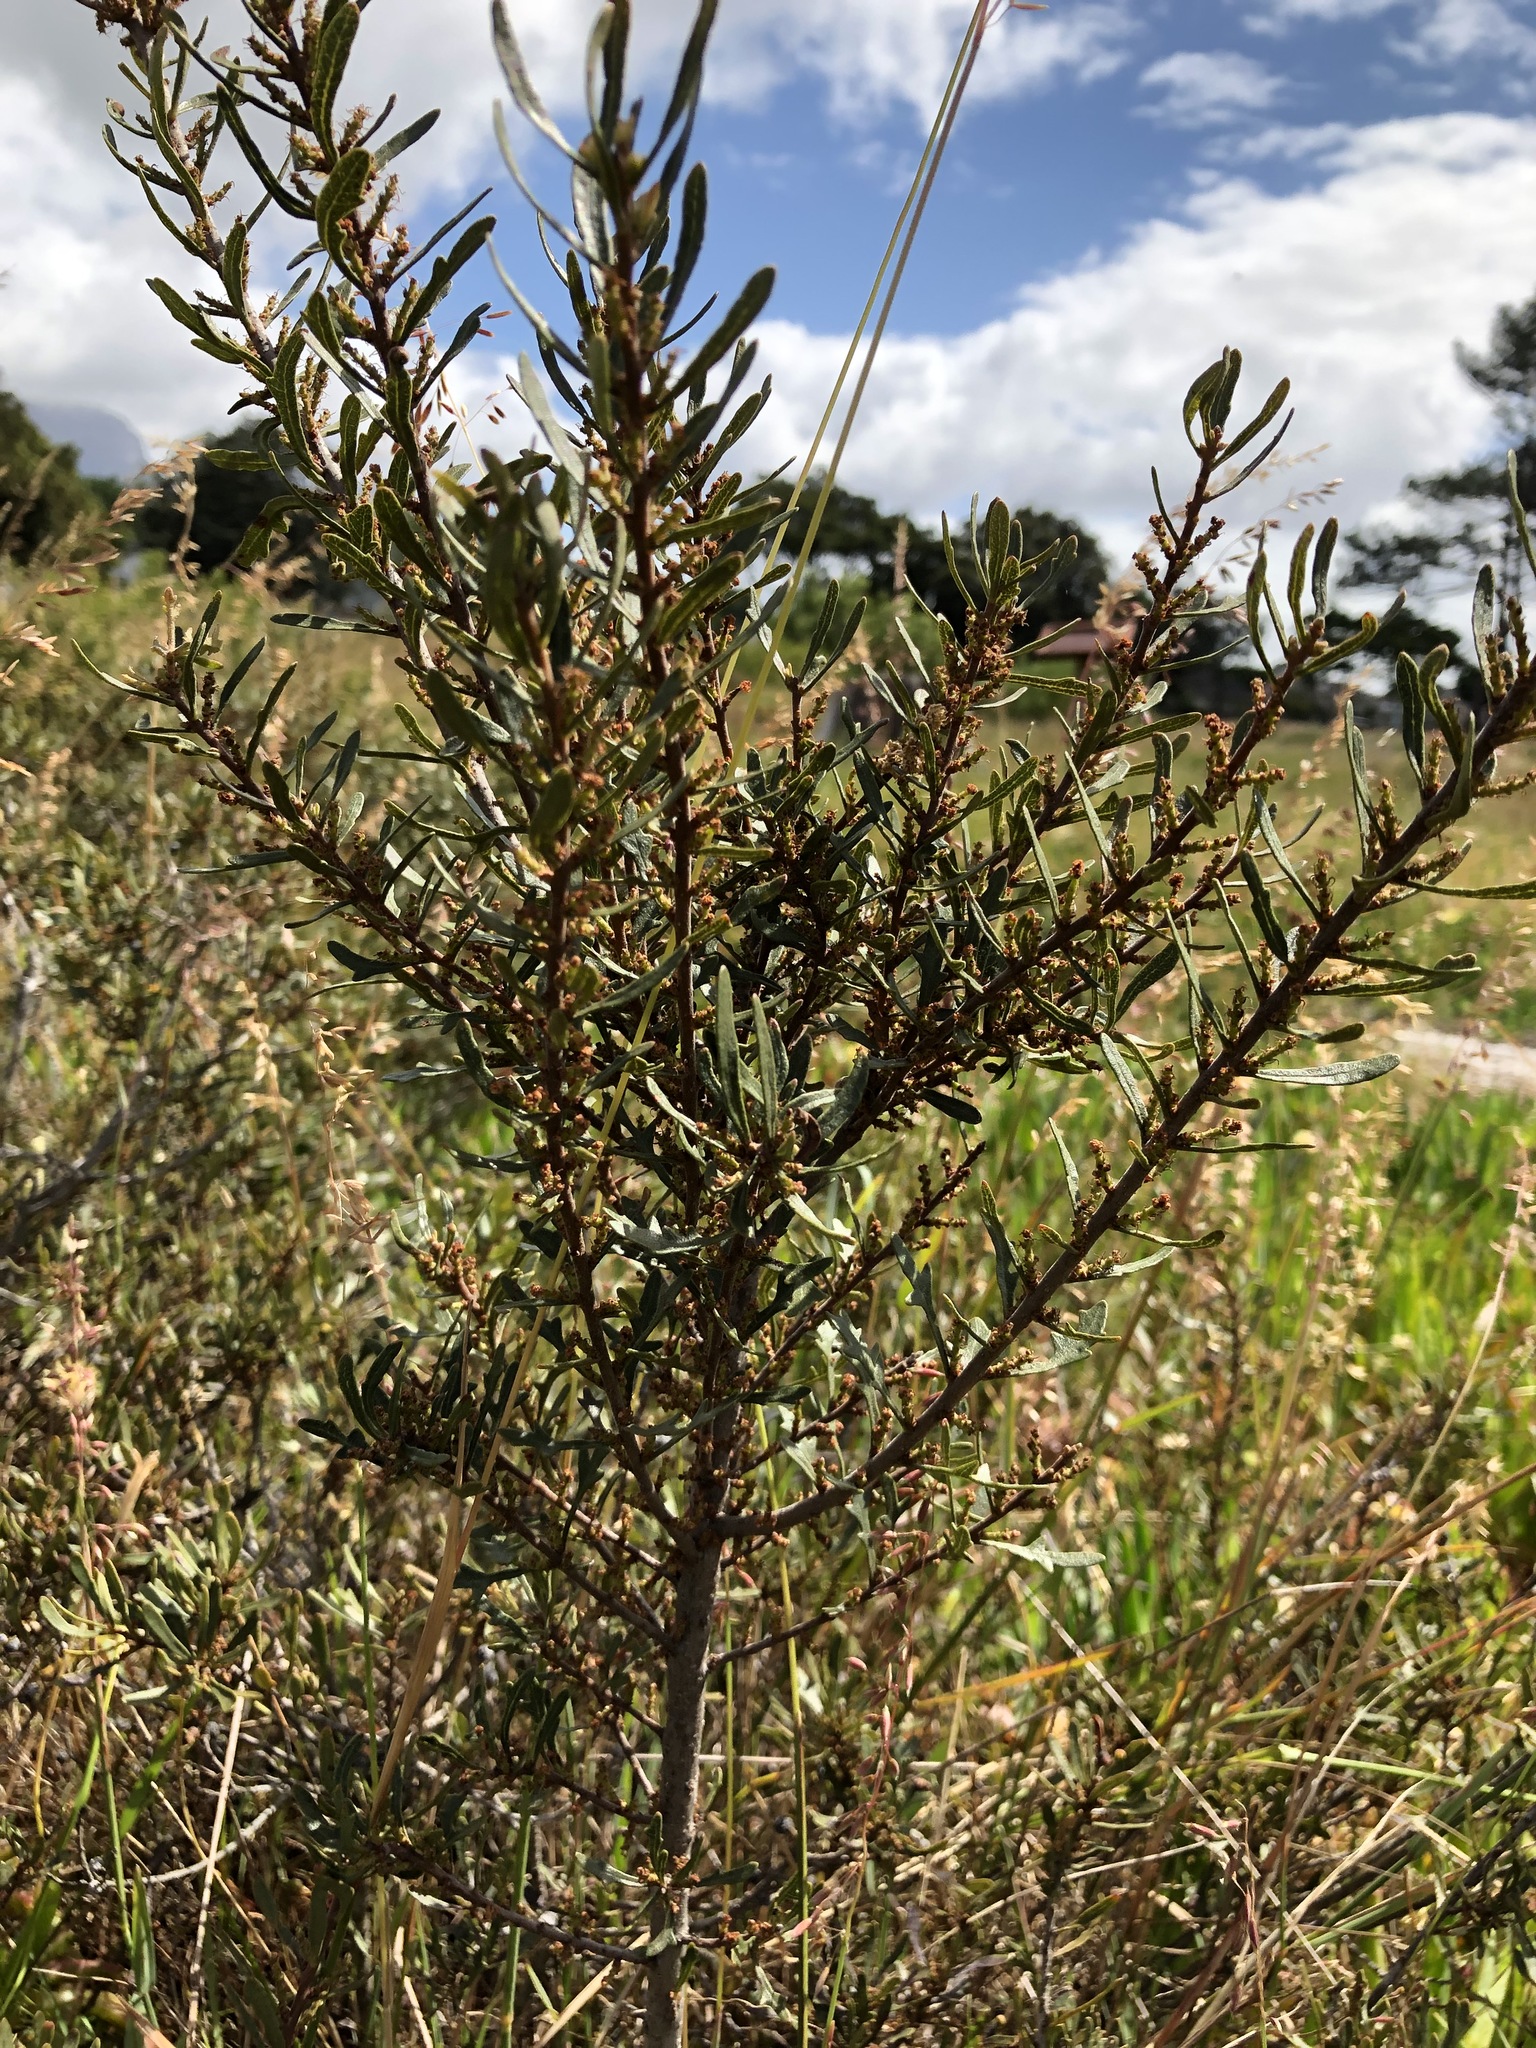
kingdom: Plantae
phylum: Tracheophyta
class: Magnoliopsida
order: Fagales
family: Myricaceae
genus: Morella
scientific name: Morella quercifolia
